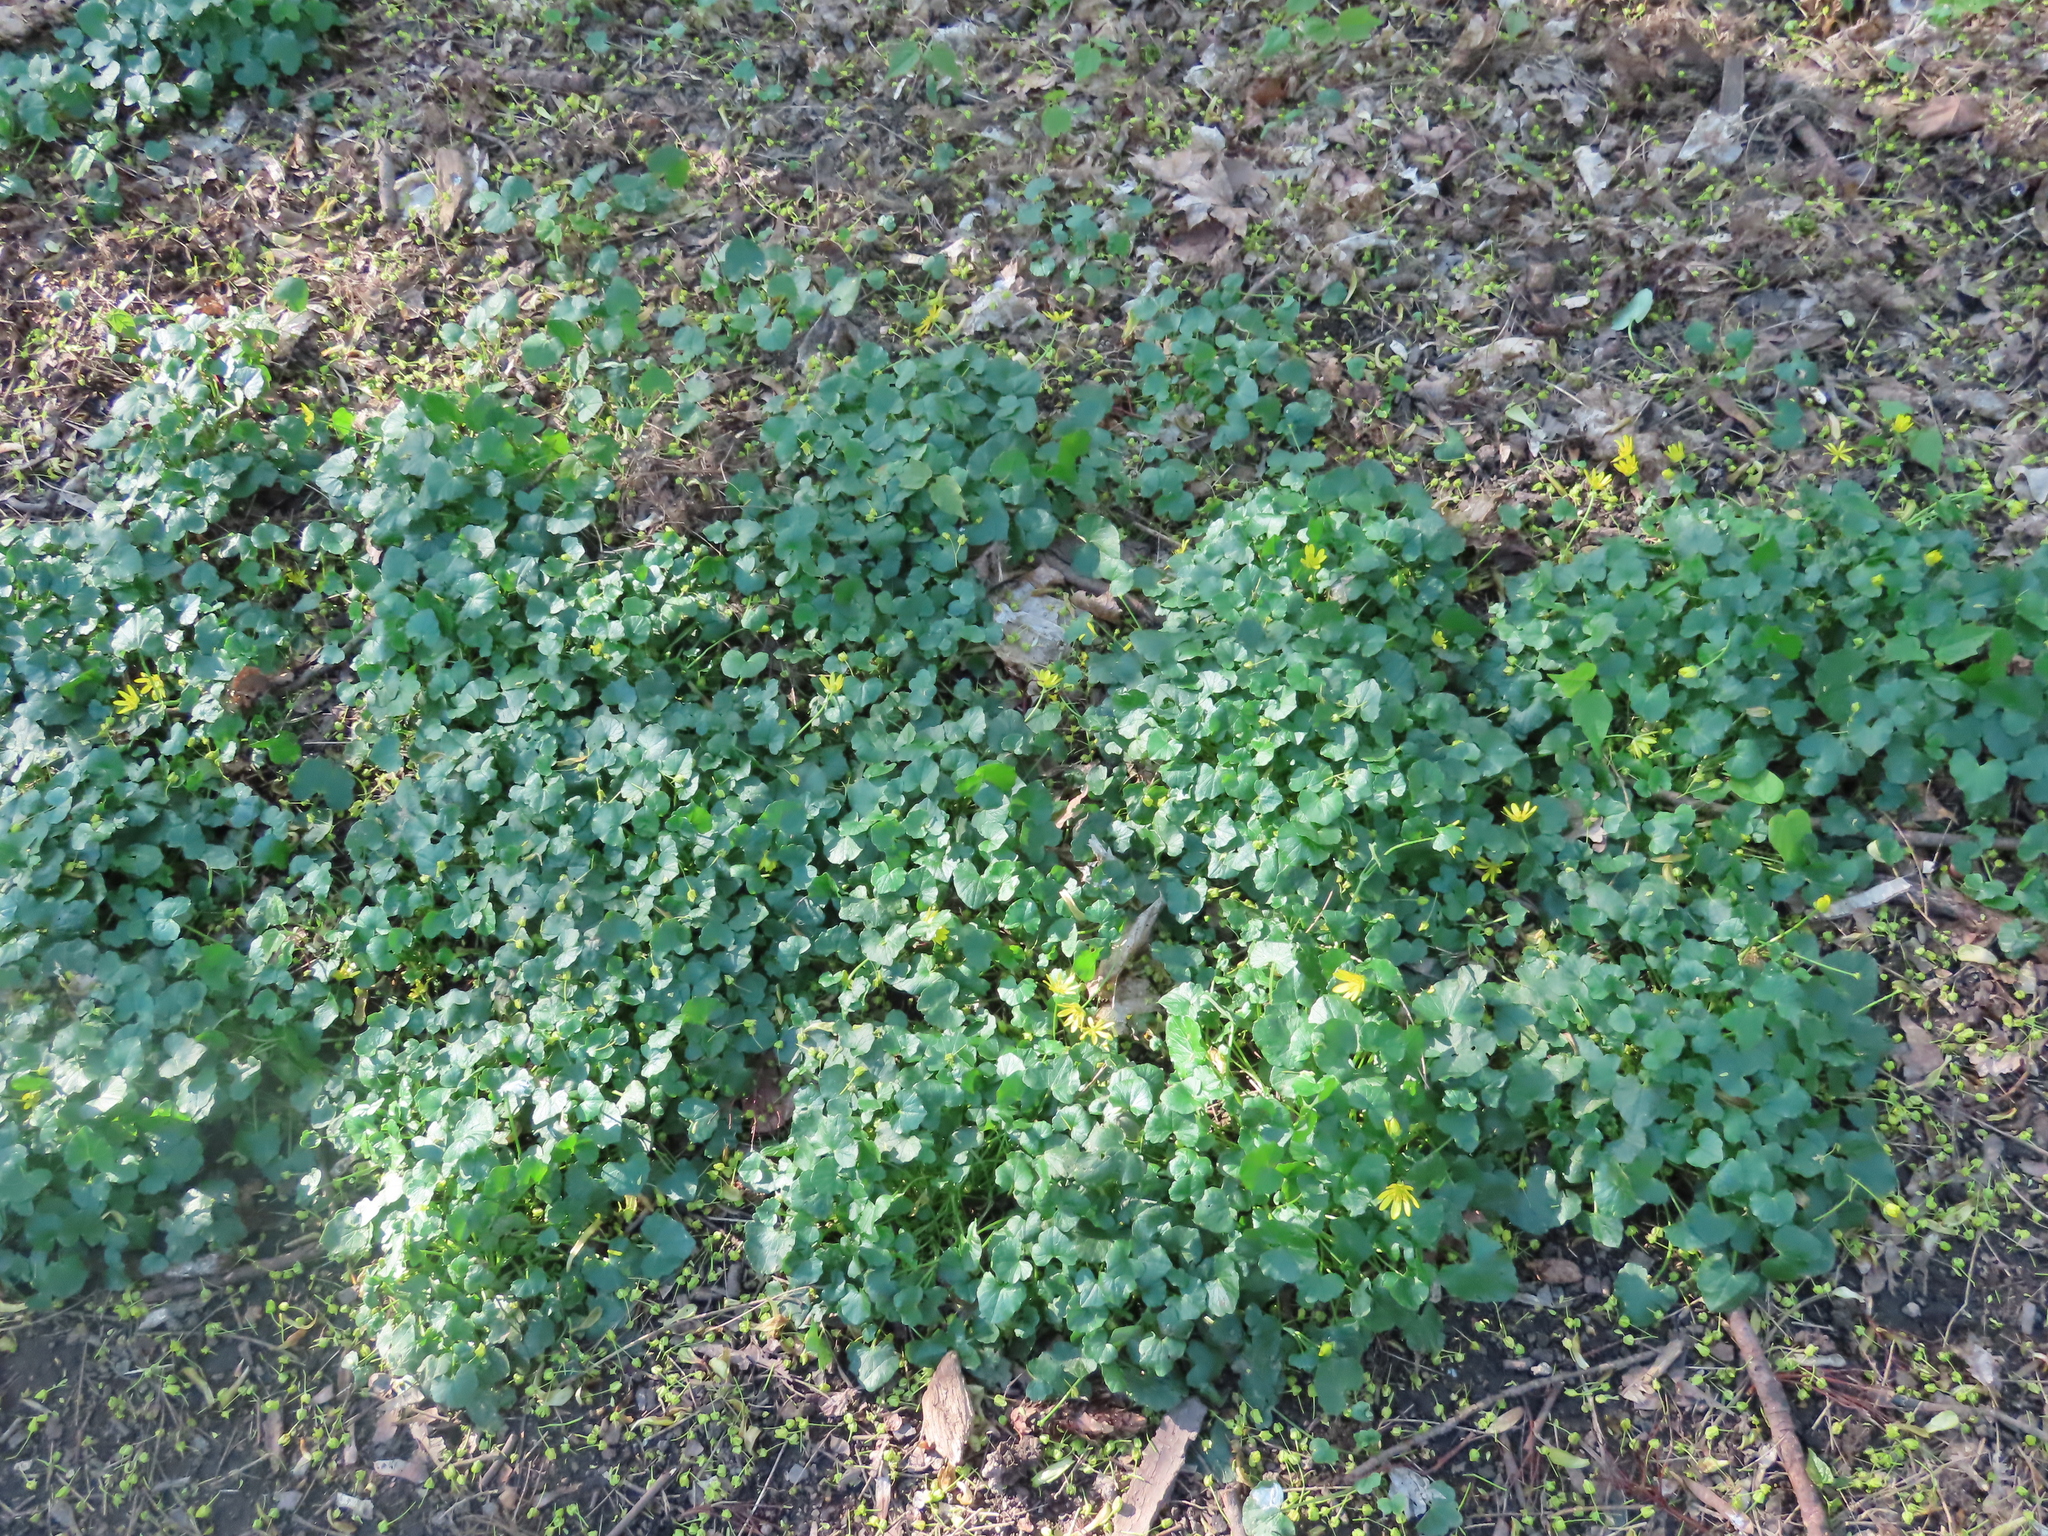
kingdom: Plantae
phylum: Tracheophyta
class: Magnoliopsida
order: Ranunculales
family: Ranunculaceae
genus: Ficaria
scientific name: Ficaria verna
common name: Lesser celandine
